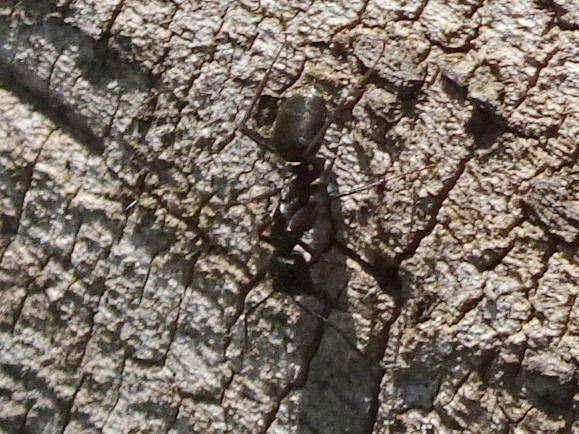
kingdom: Animalia
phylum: Arthropoda
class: Insecta
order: Hymenoptera
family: Formicidae
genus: Camponotus
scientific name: Camponotus pennsylvanicus
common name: Black carpenter ant
